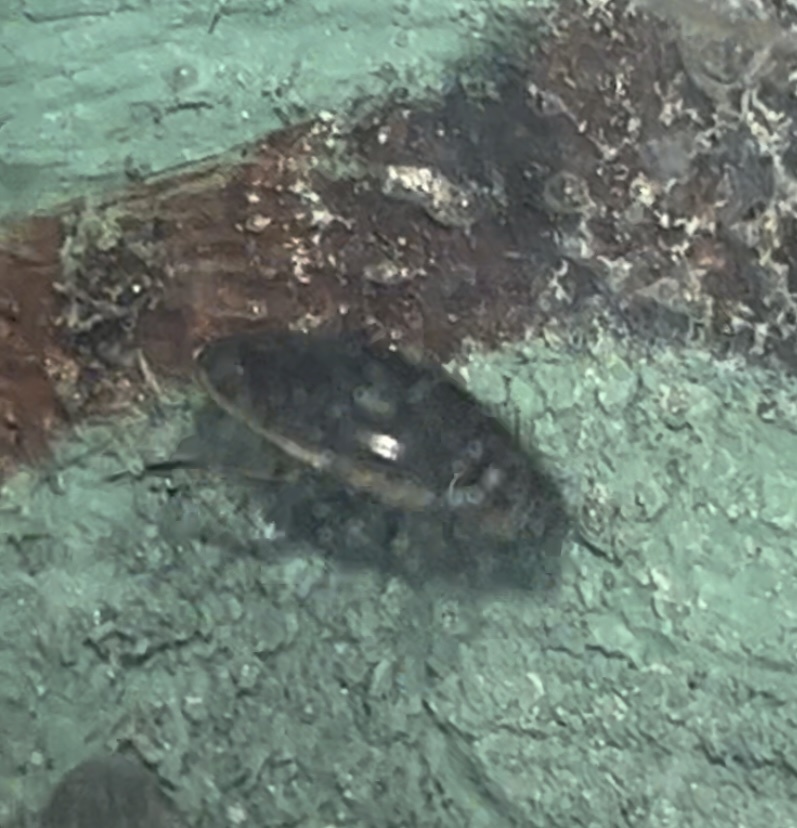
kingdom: Animalia
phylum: Arthropoda
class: Insecta
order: Coleoptera
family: Hydrophilidae
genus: Tropisternus
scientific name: Tropisternus lateralis
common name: Lateral-banded water scavenger beetle
